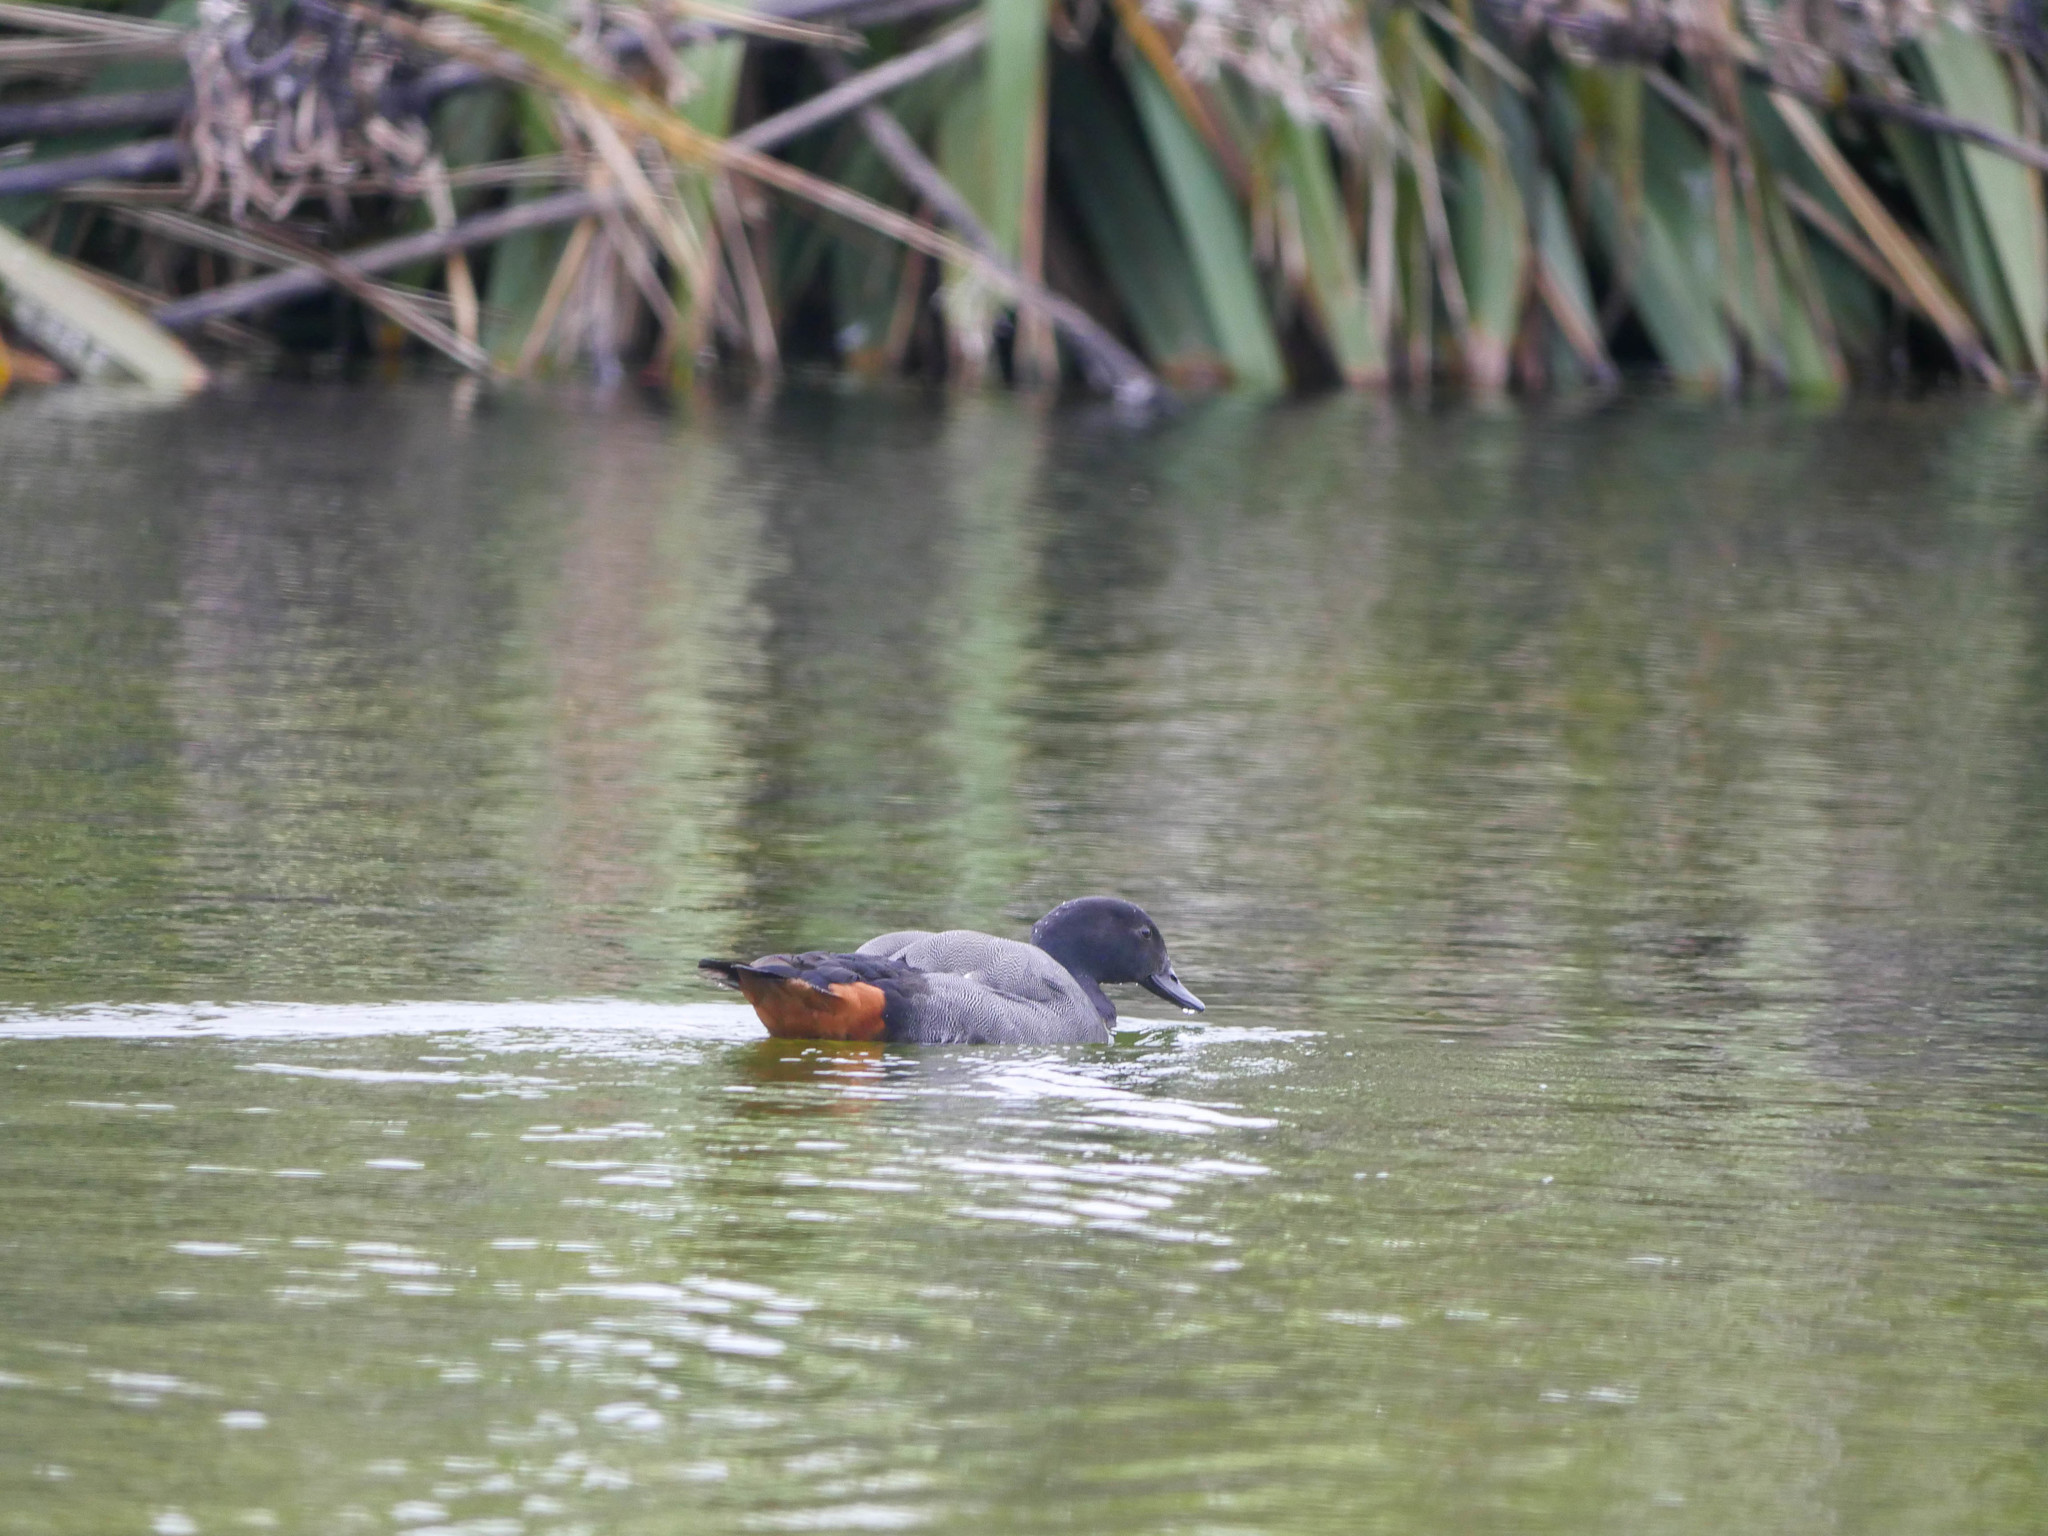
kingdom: Animalia
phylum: Chordata
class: Aves
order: Anseriformes
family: Anatidae
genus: Tadorna
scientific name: Tadorna variegata
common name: Paradise shelduck
